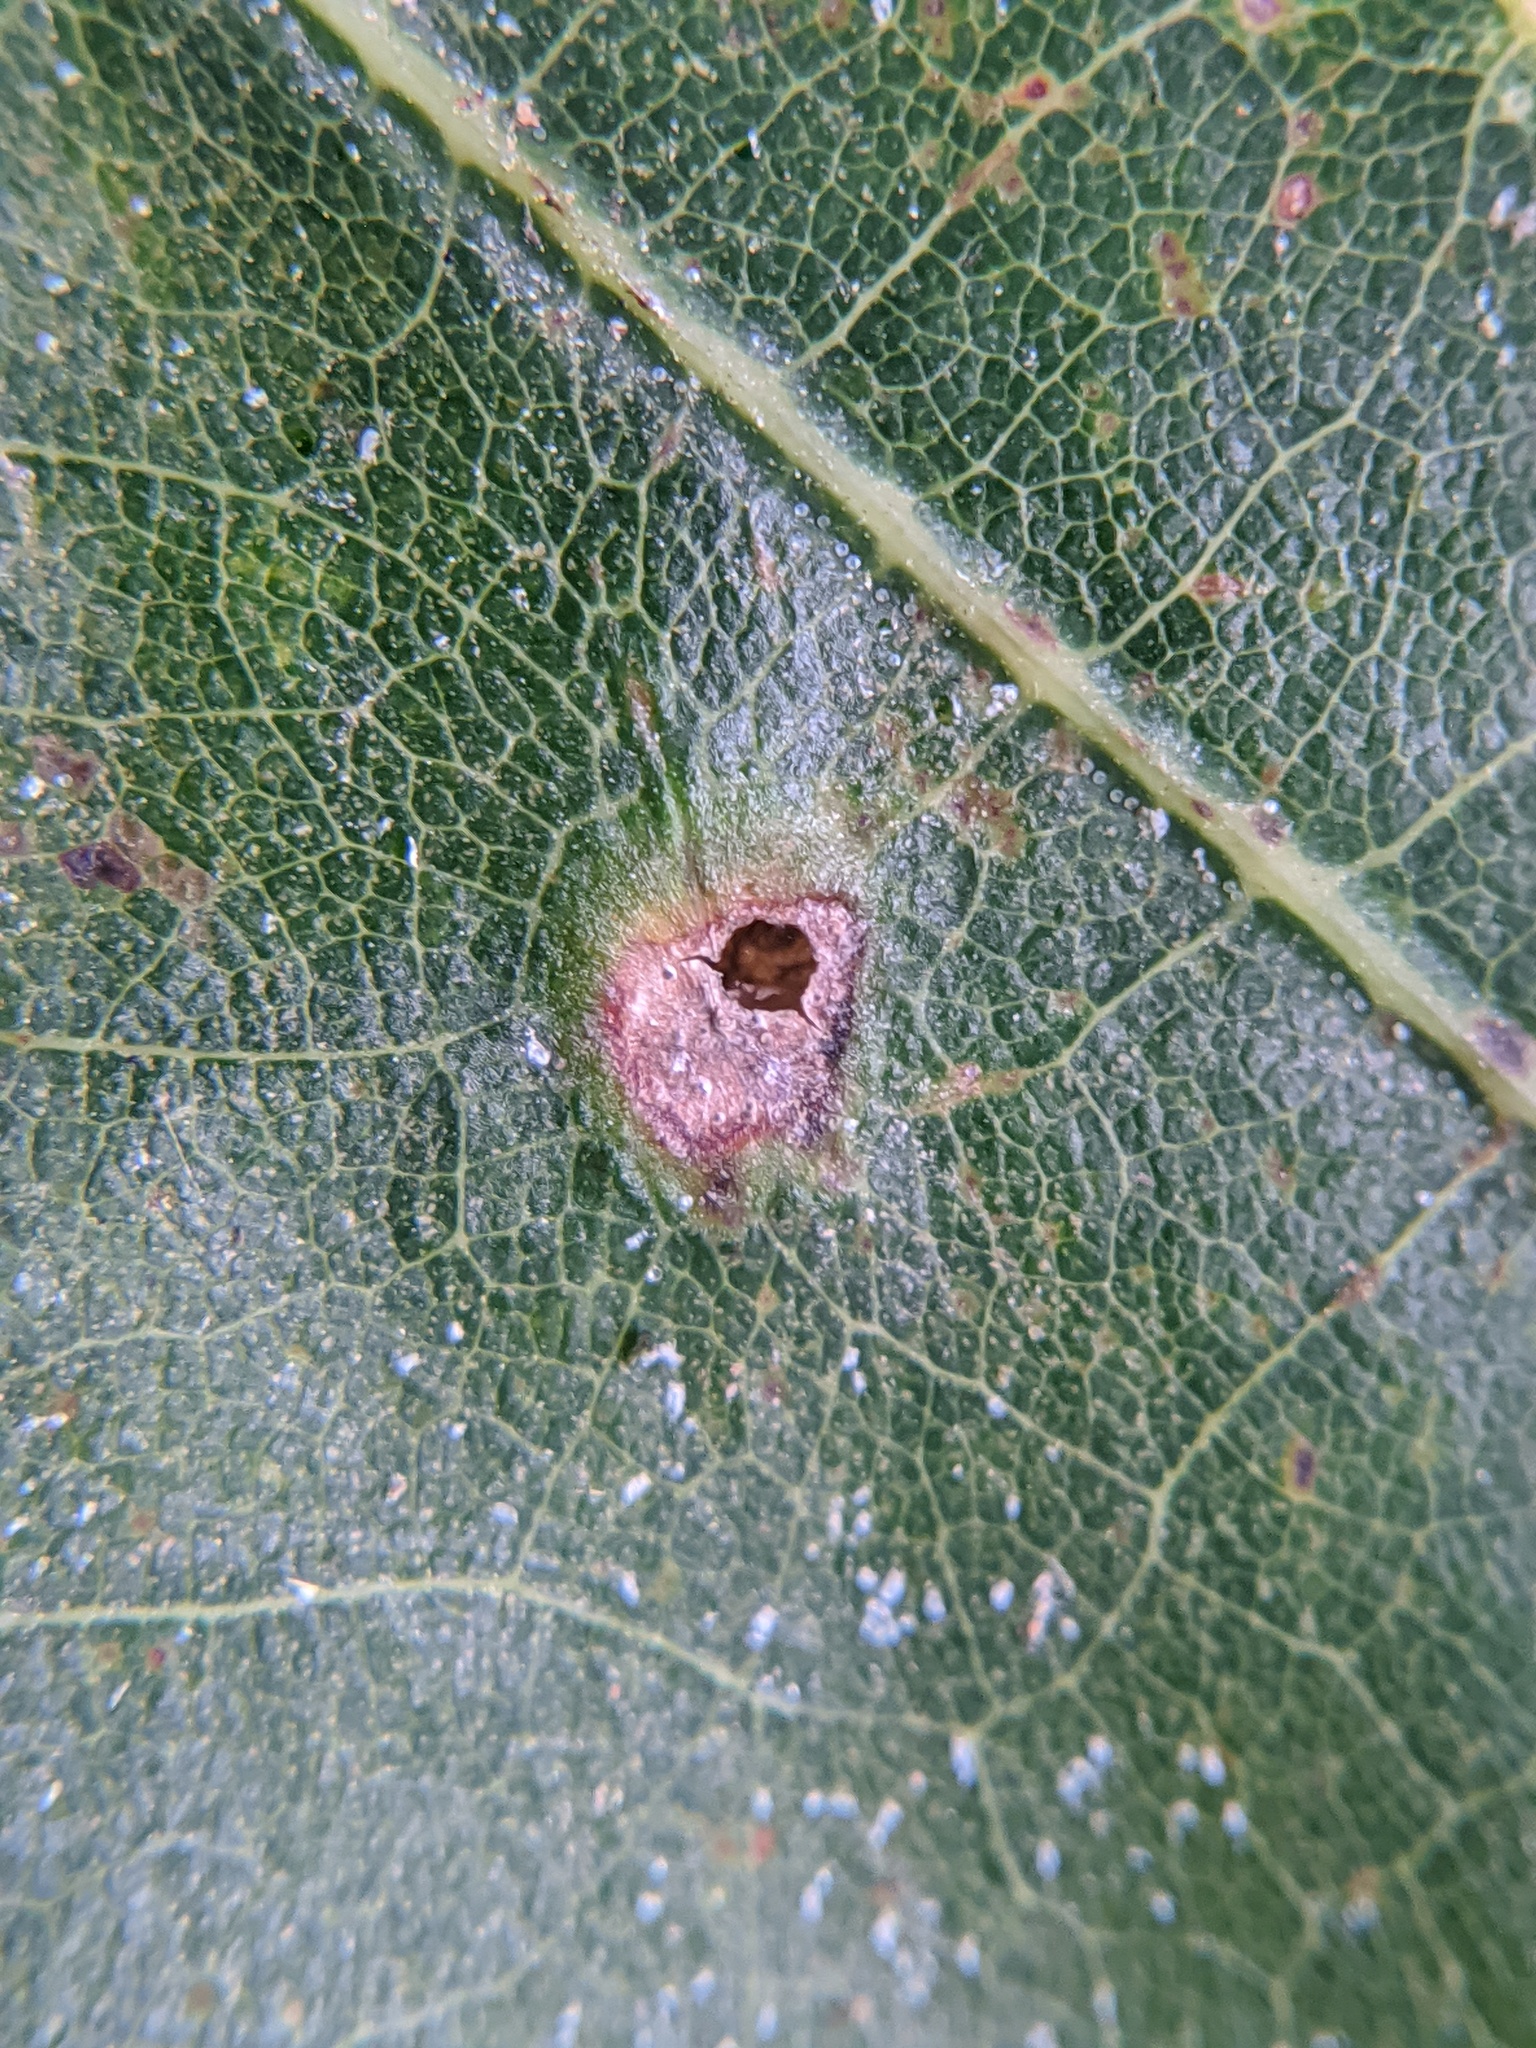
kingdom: Animalia
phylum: Arthropoda
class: Insecta
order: Hymenoptera
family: Cynipidae
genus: Dryocosmus
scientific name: Dryocosmus
